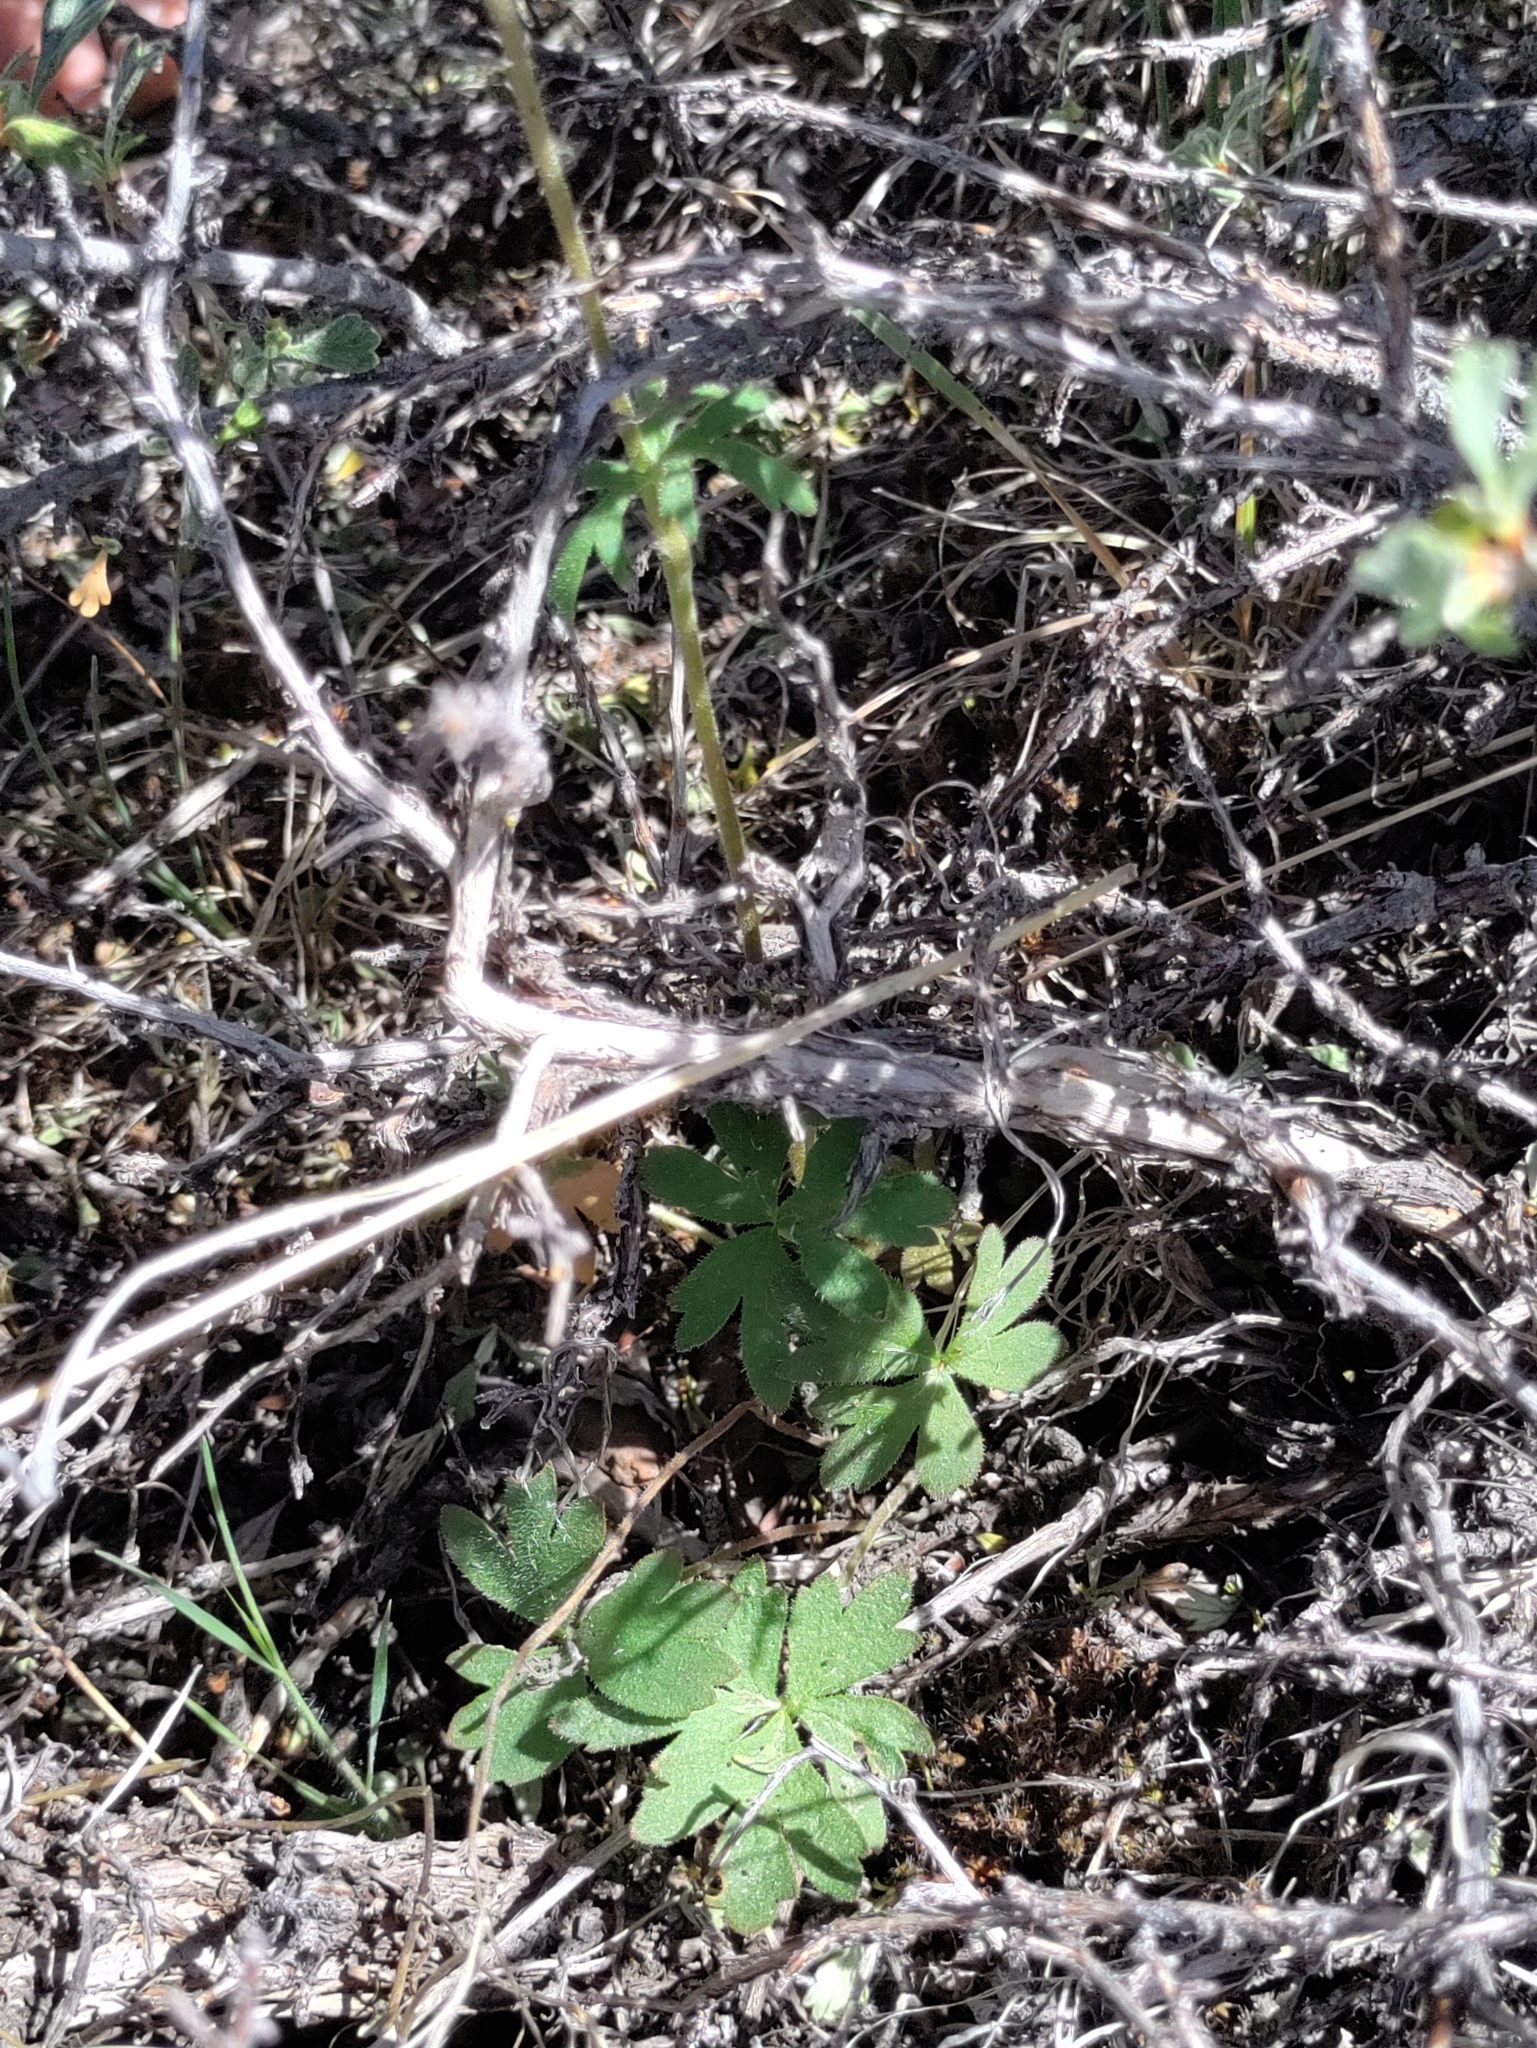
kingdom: Plantae
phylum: Tracheophyta
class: Magnoliopsida
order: Saxifragales
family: Saxifragaceae
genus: Lithophragma
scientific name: Lithophragma parviflorum
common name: Small-flowered fringe-cup
